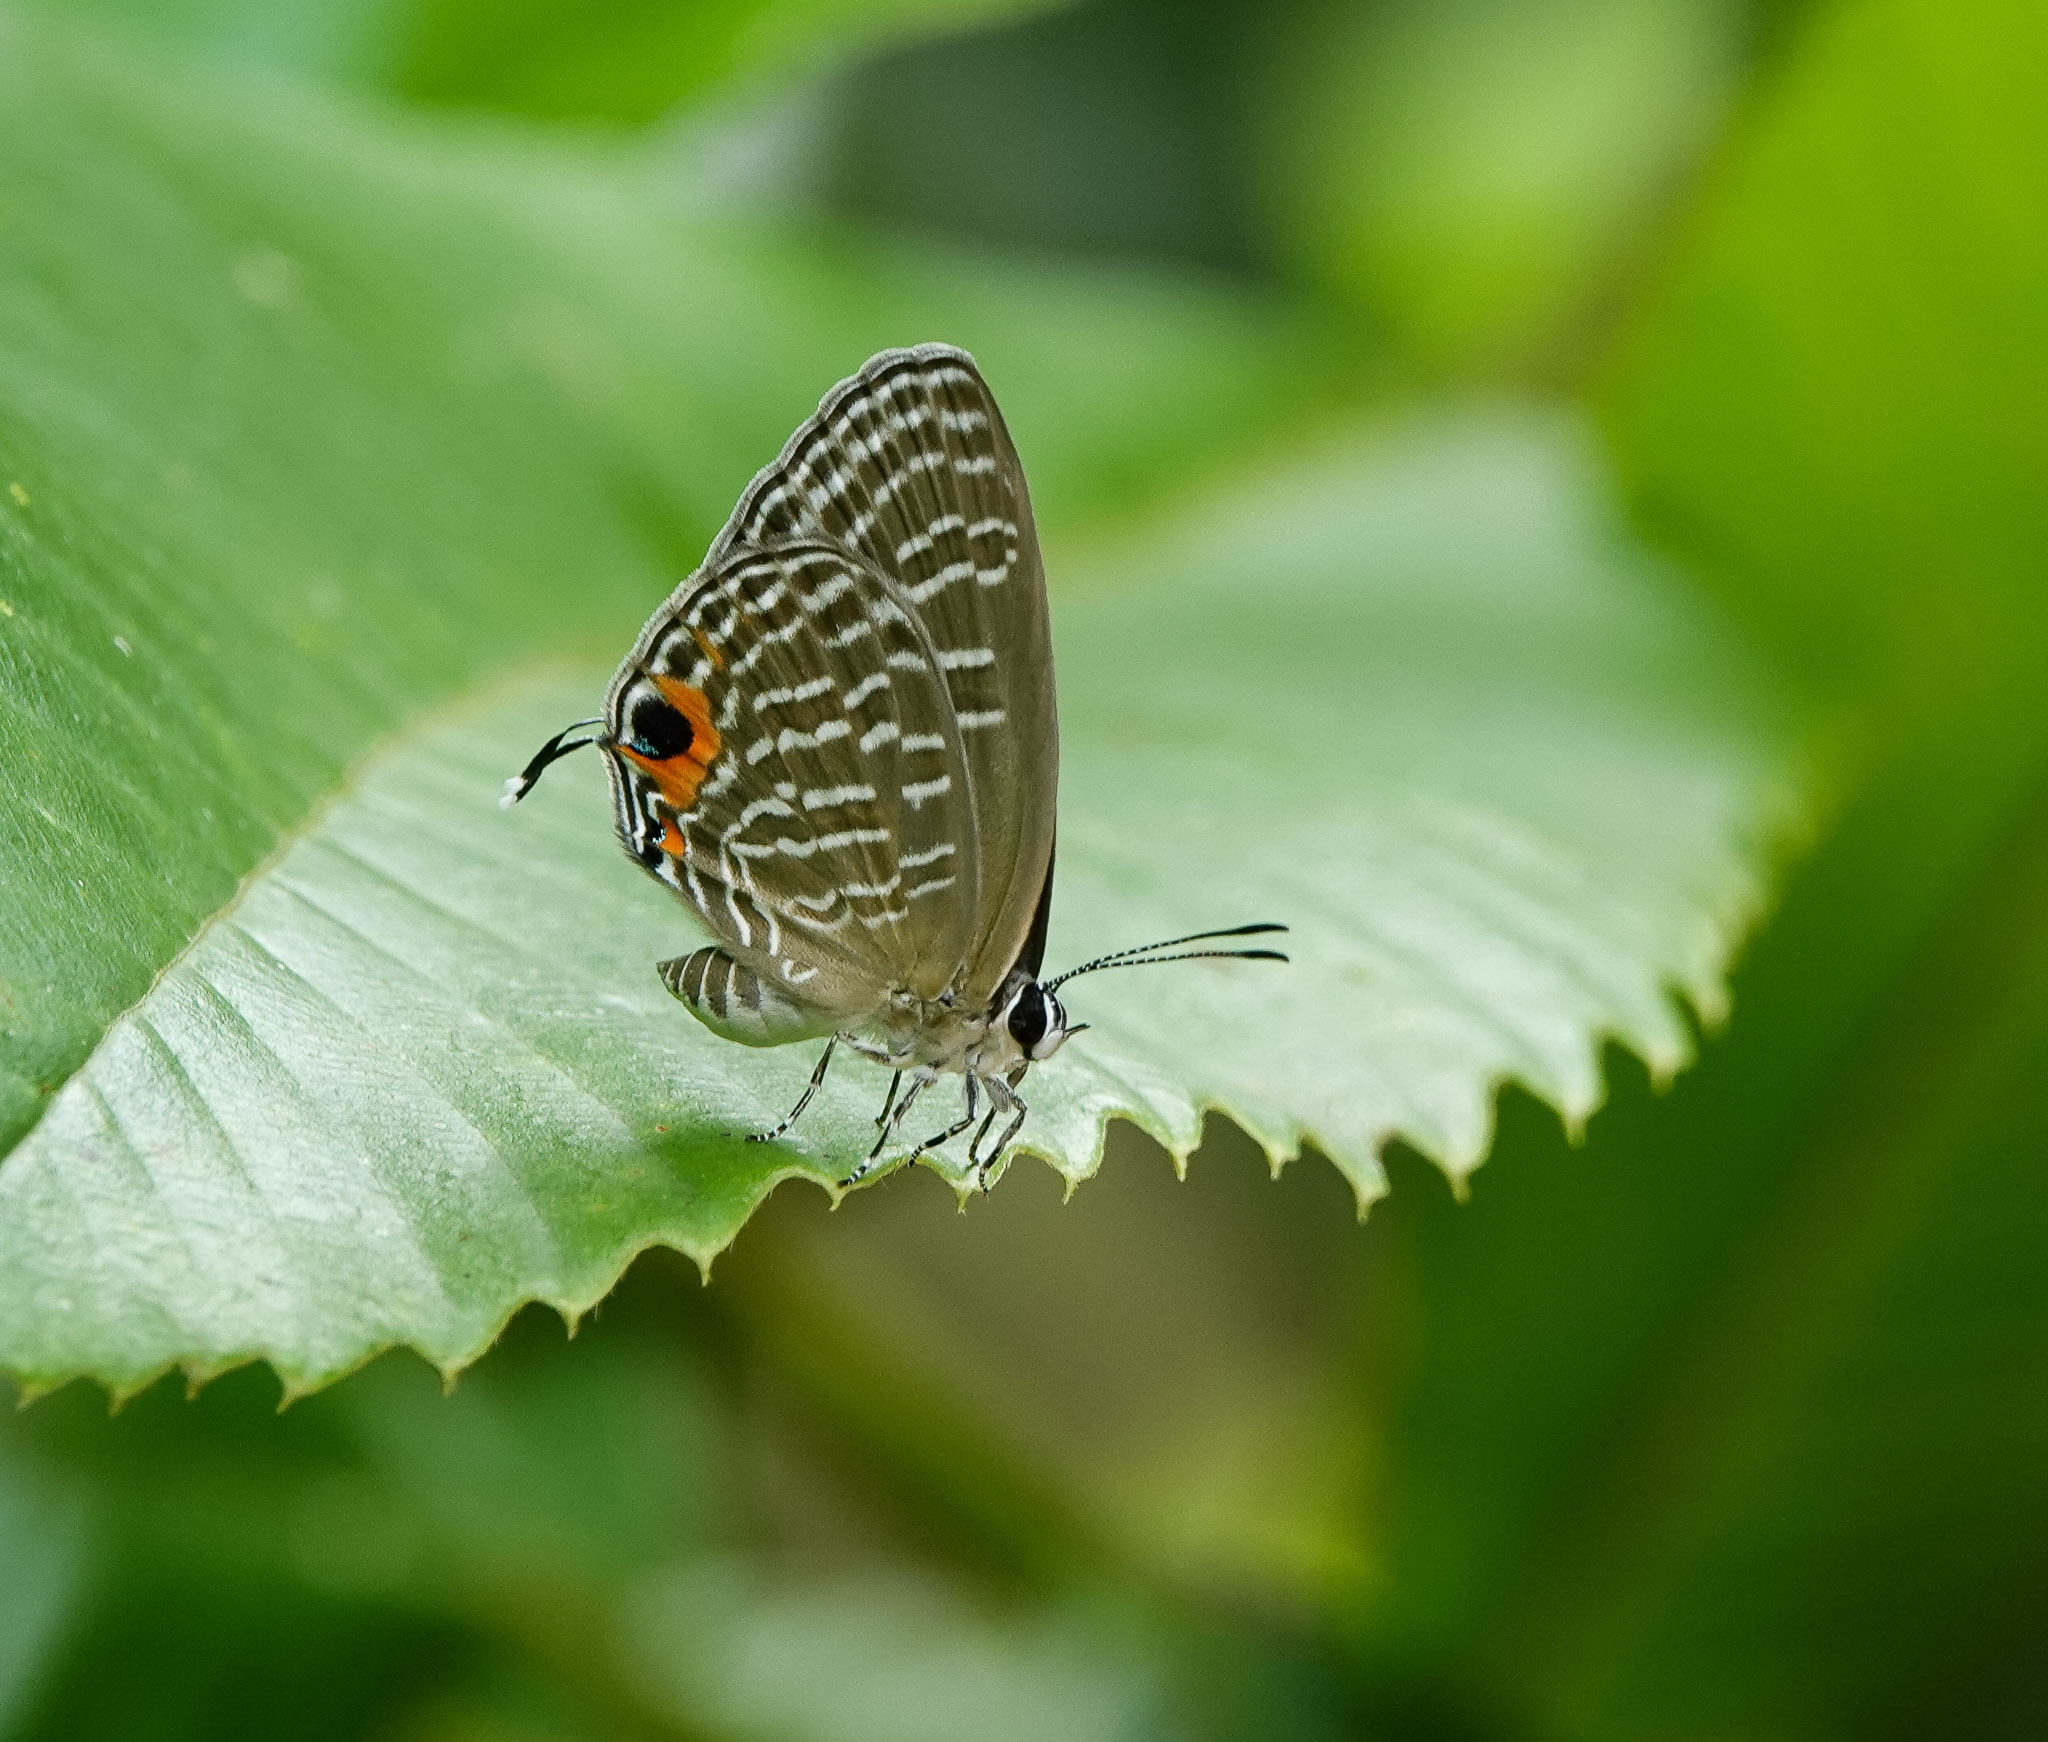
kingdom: Animalia
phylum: Arthropoda
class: Insecta
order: Lepidoptera
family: Lycaenidae
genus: Jamides
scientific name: Jamides alecto
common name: Metallic cerulean
